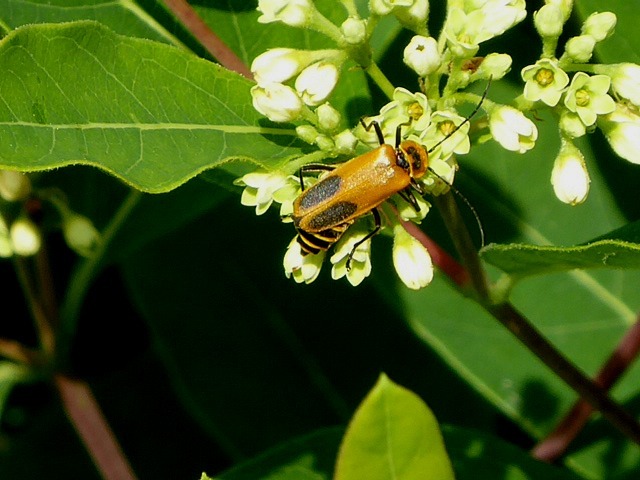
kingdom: Animalia
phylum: Arthropoda
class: Insecta
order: Coleoptera
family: Cantharidae
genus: Chauliognathus
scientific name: Chauliognathus pensylvanicus
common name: Goldenrod soldier beetle
